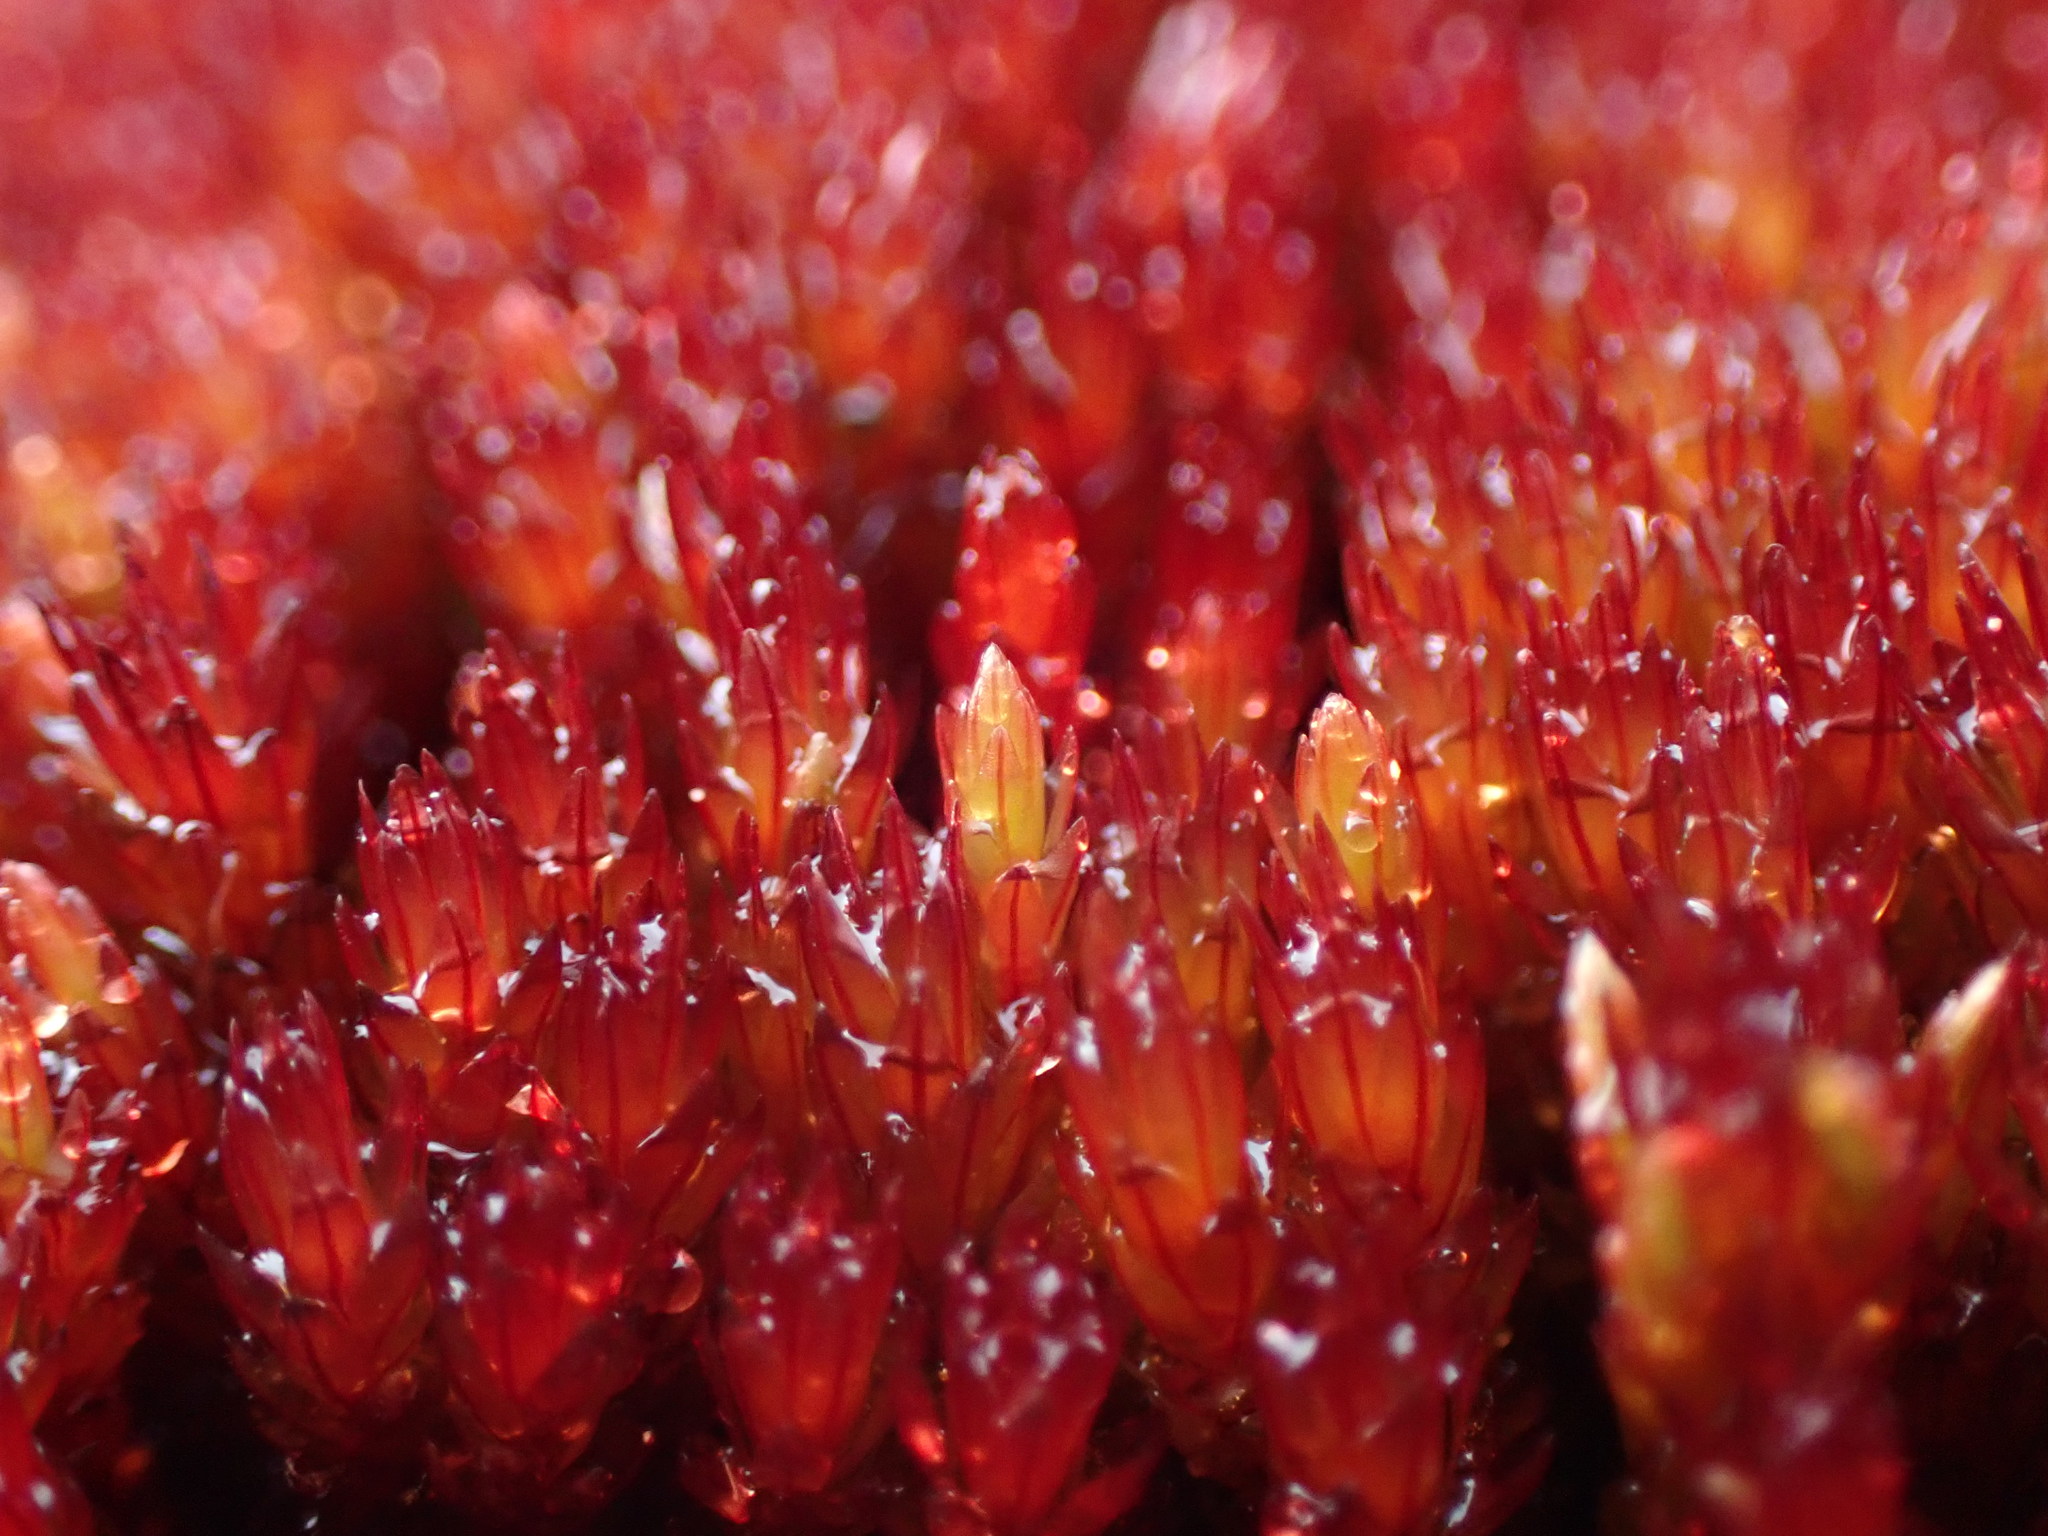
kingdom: Plantae
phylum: Bryophyta
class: Bryopsida
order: Bryales
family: Bryaceae
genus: Imbribryum
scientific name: Imbribryum miniatum
